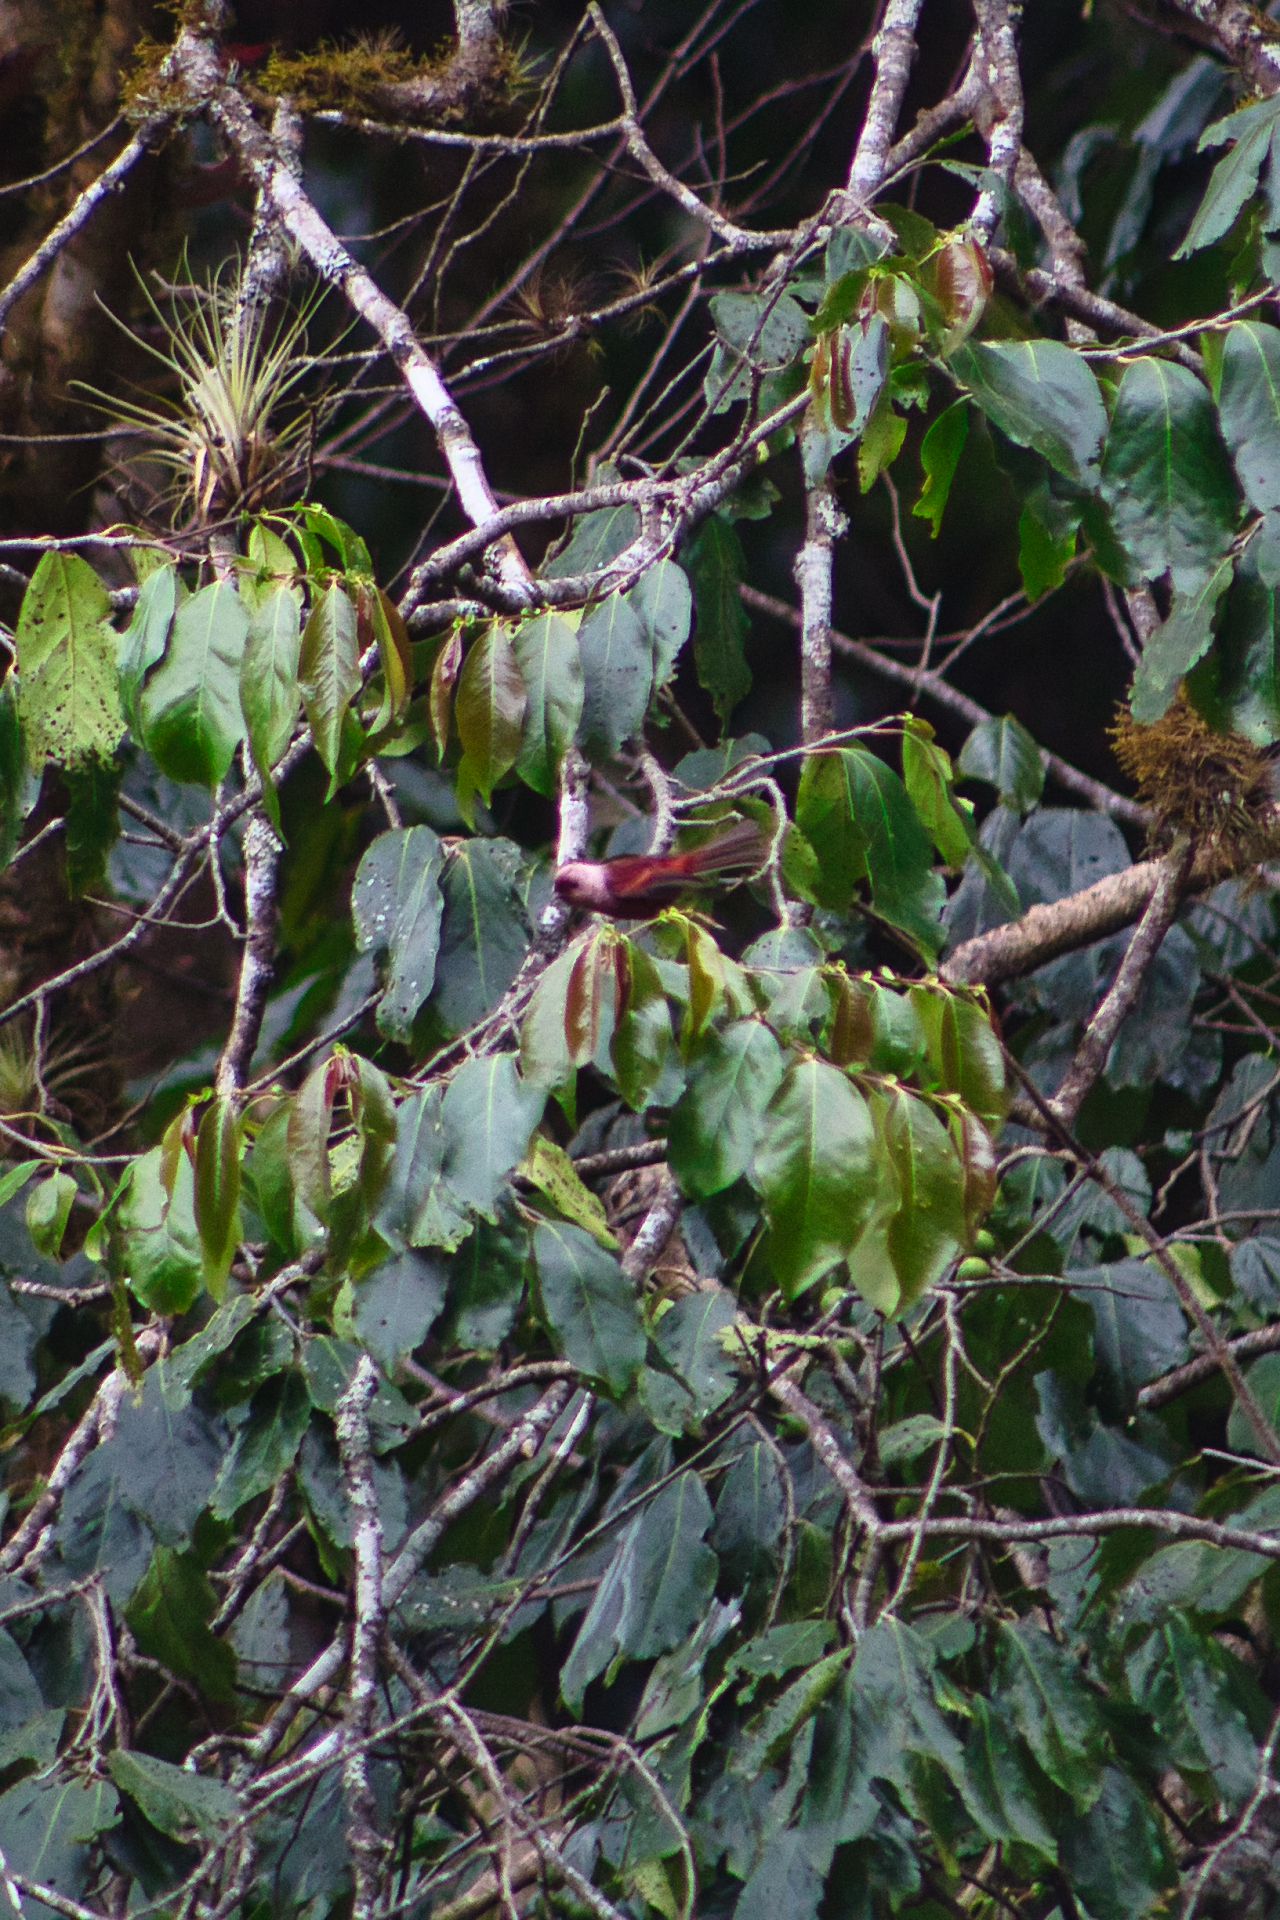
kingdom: Animalia
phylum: Chordata
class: Aves
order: Passeriformes
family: Parulidae
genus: Cardellina
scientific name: Cardellina versicolor
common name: Pink-headed warbler
